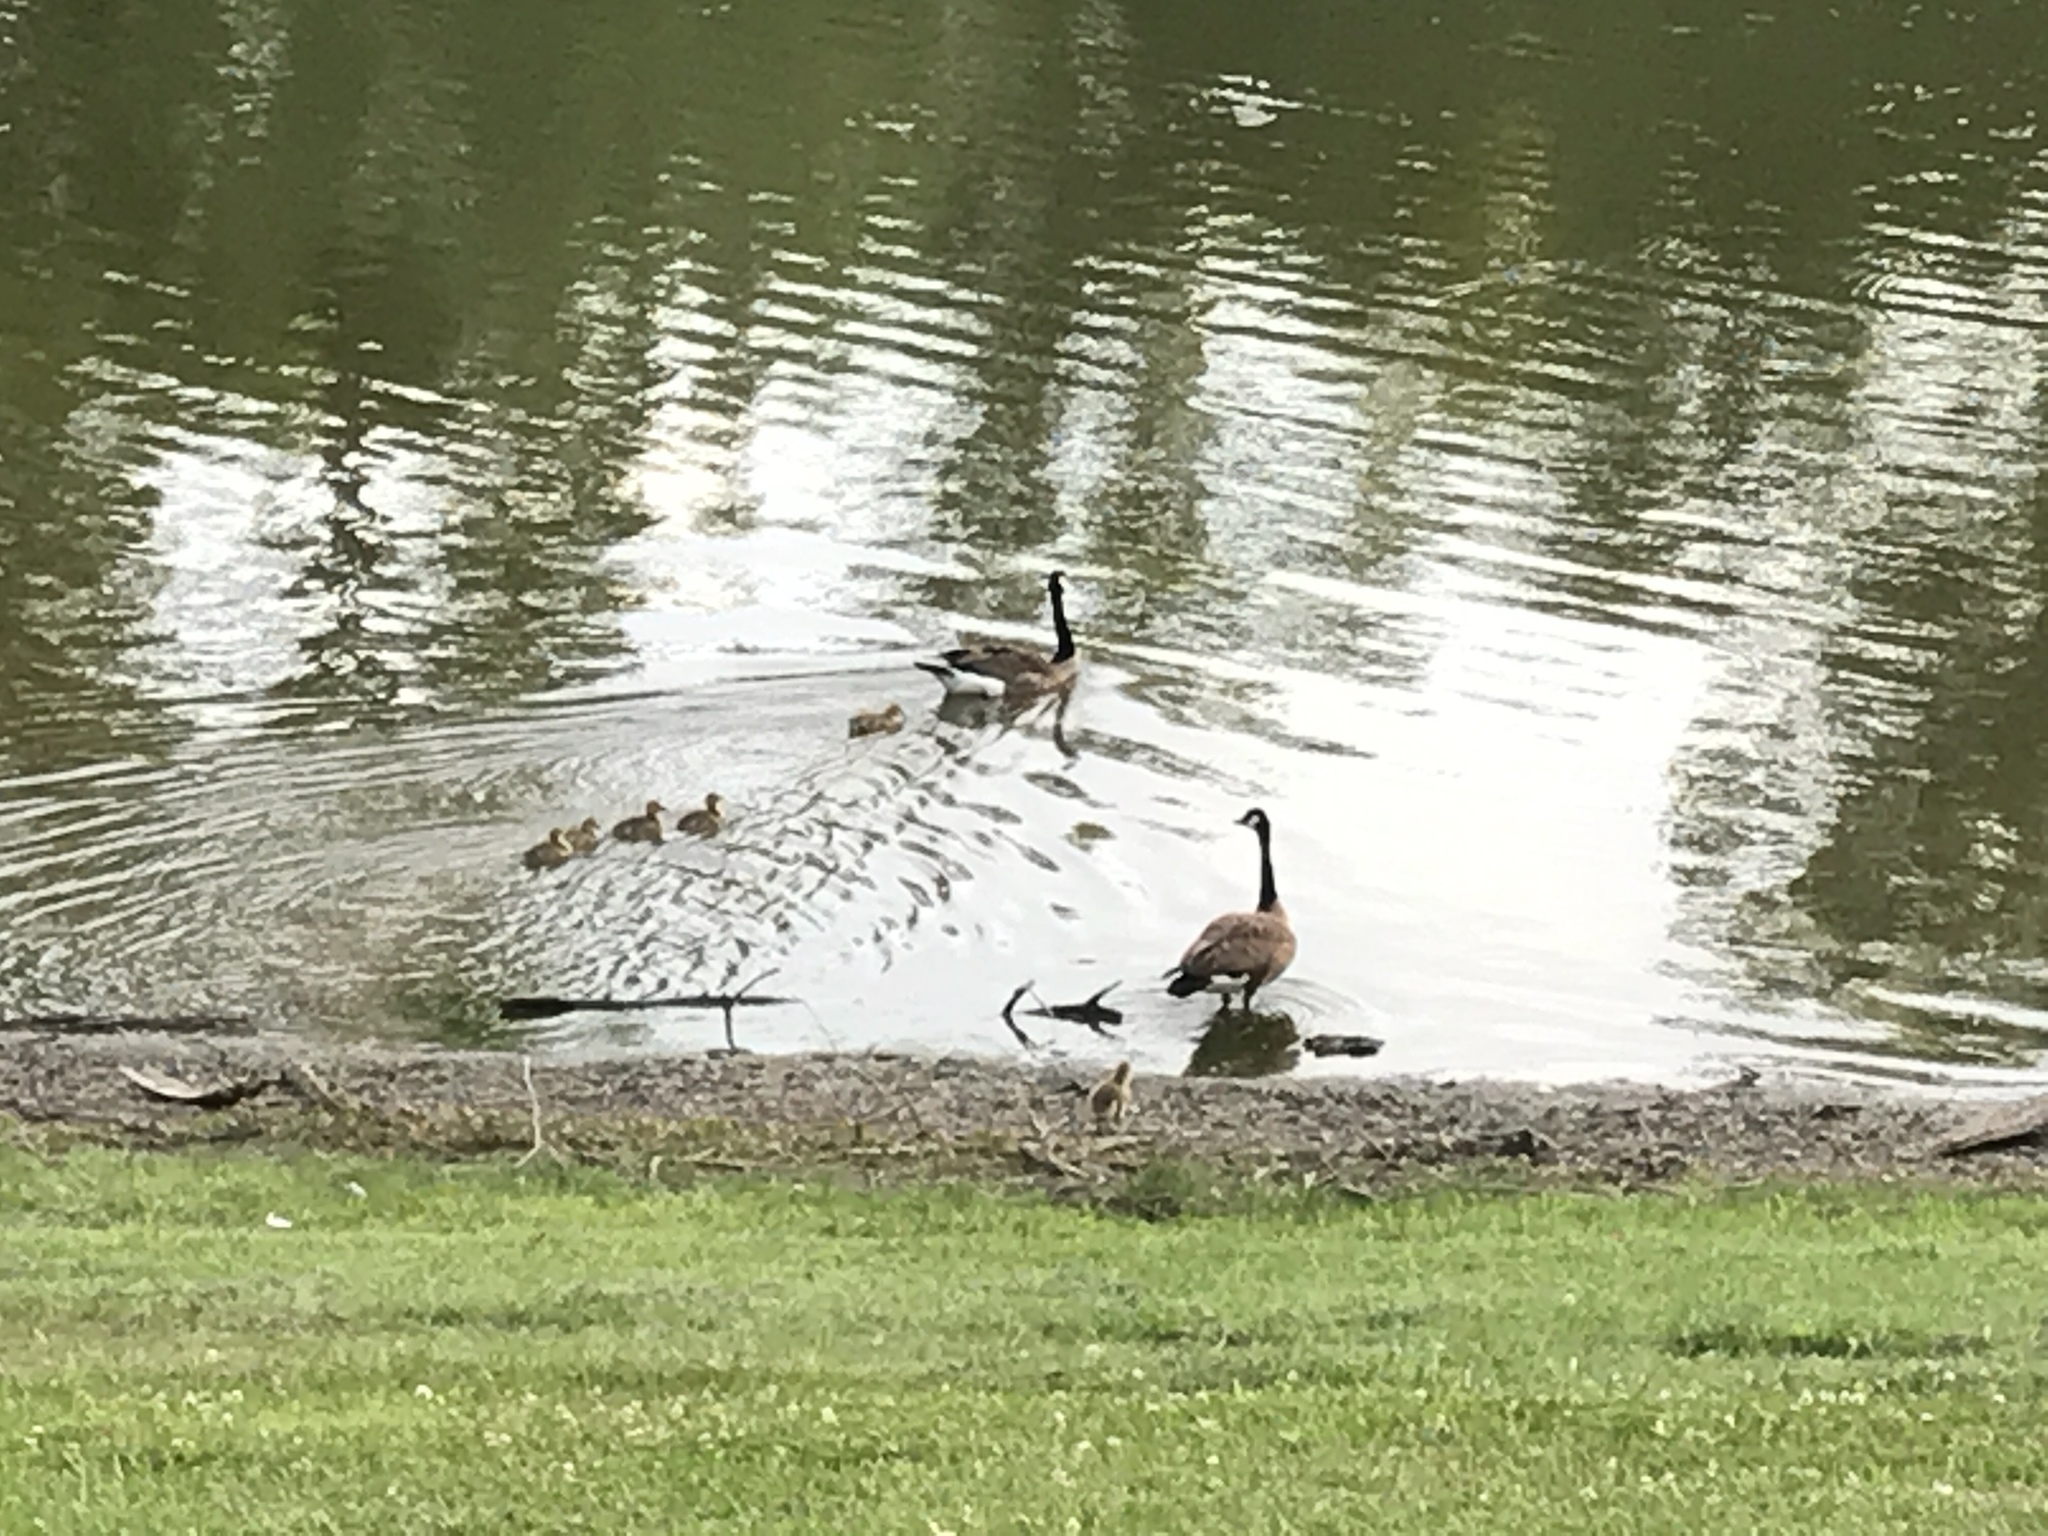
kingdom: Animalia
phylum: Chordata
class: Aves
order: Anseriformes
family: Anatidae
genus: Branta
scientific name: Branta canadensis
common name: Canada goose
